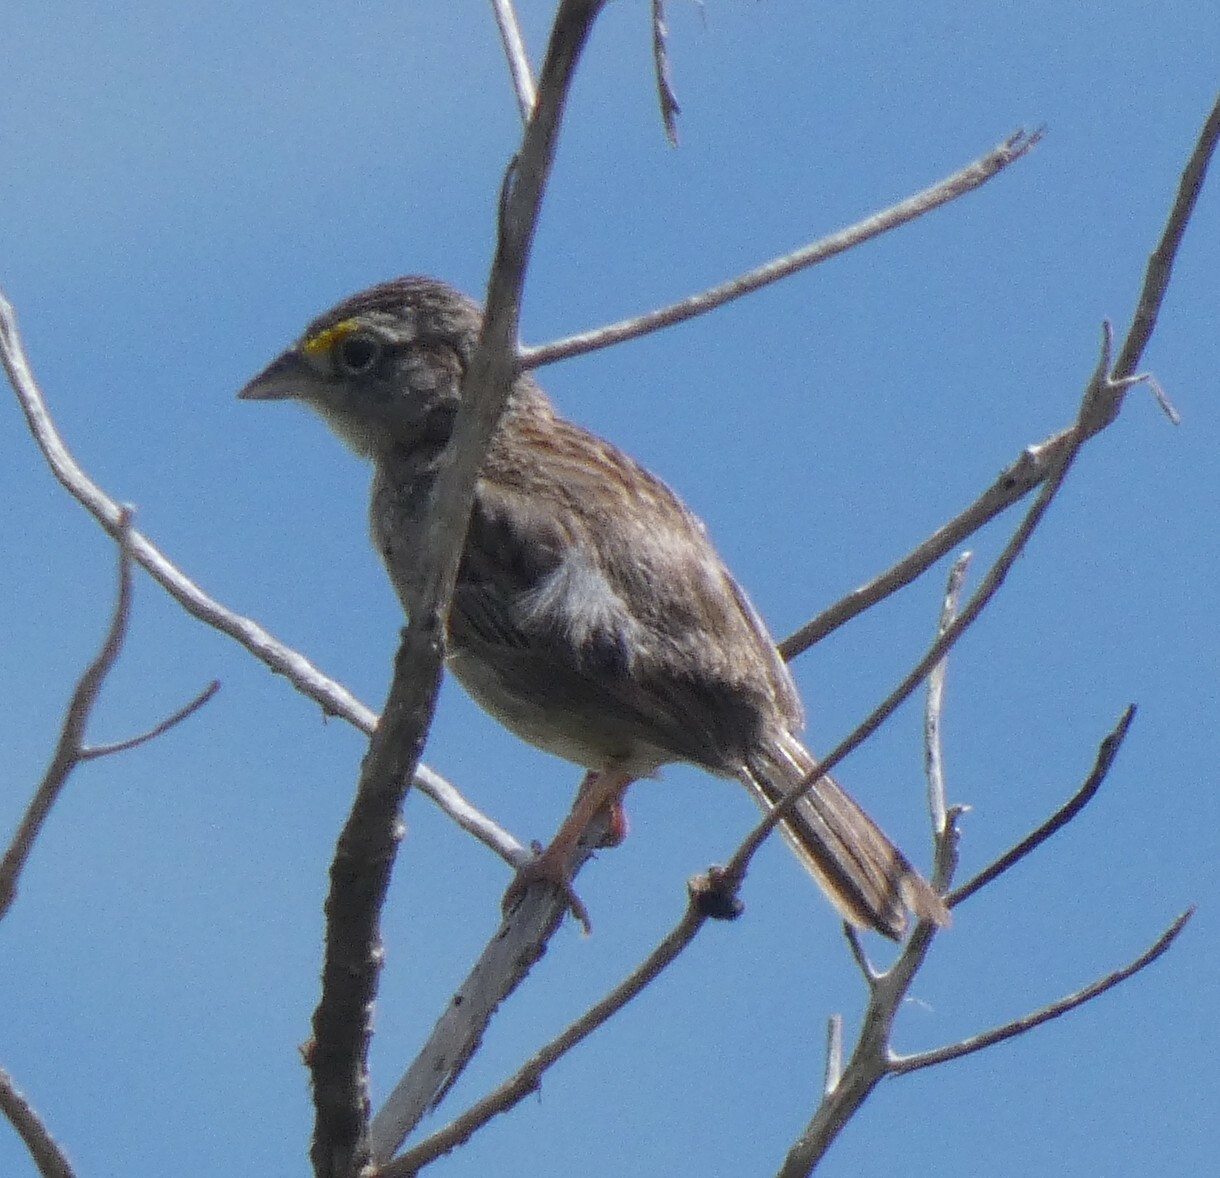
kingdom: Animalia
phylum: Chordata
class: Aves
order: Passeriformes
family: Passerellidae
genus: Ammodramus
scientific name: Ammodramus humeralis
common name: Grassland sparrow
